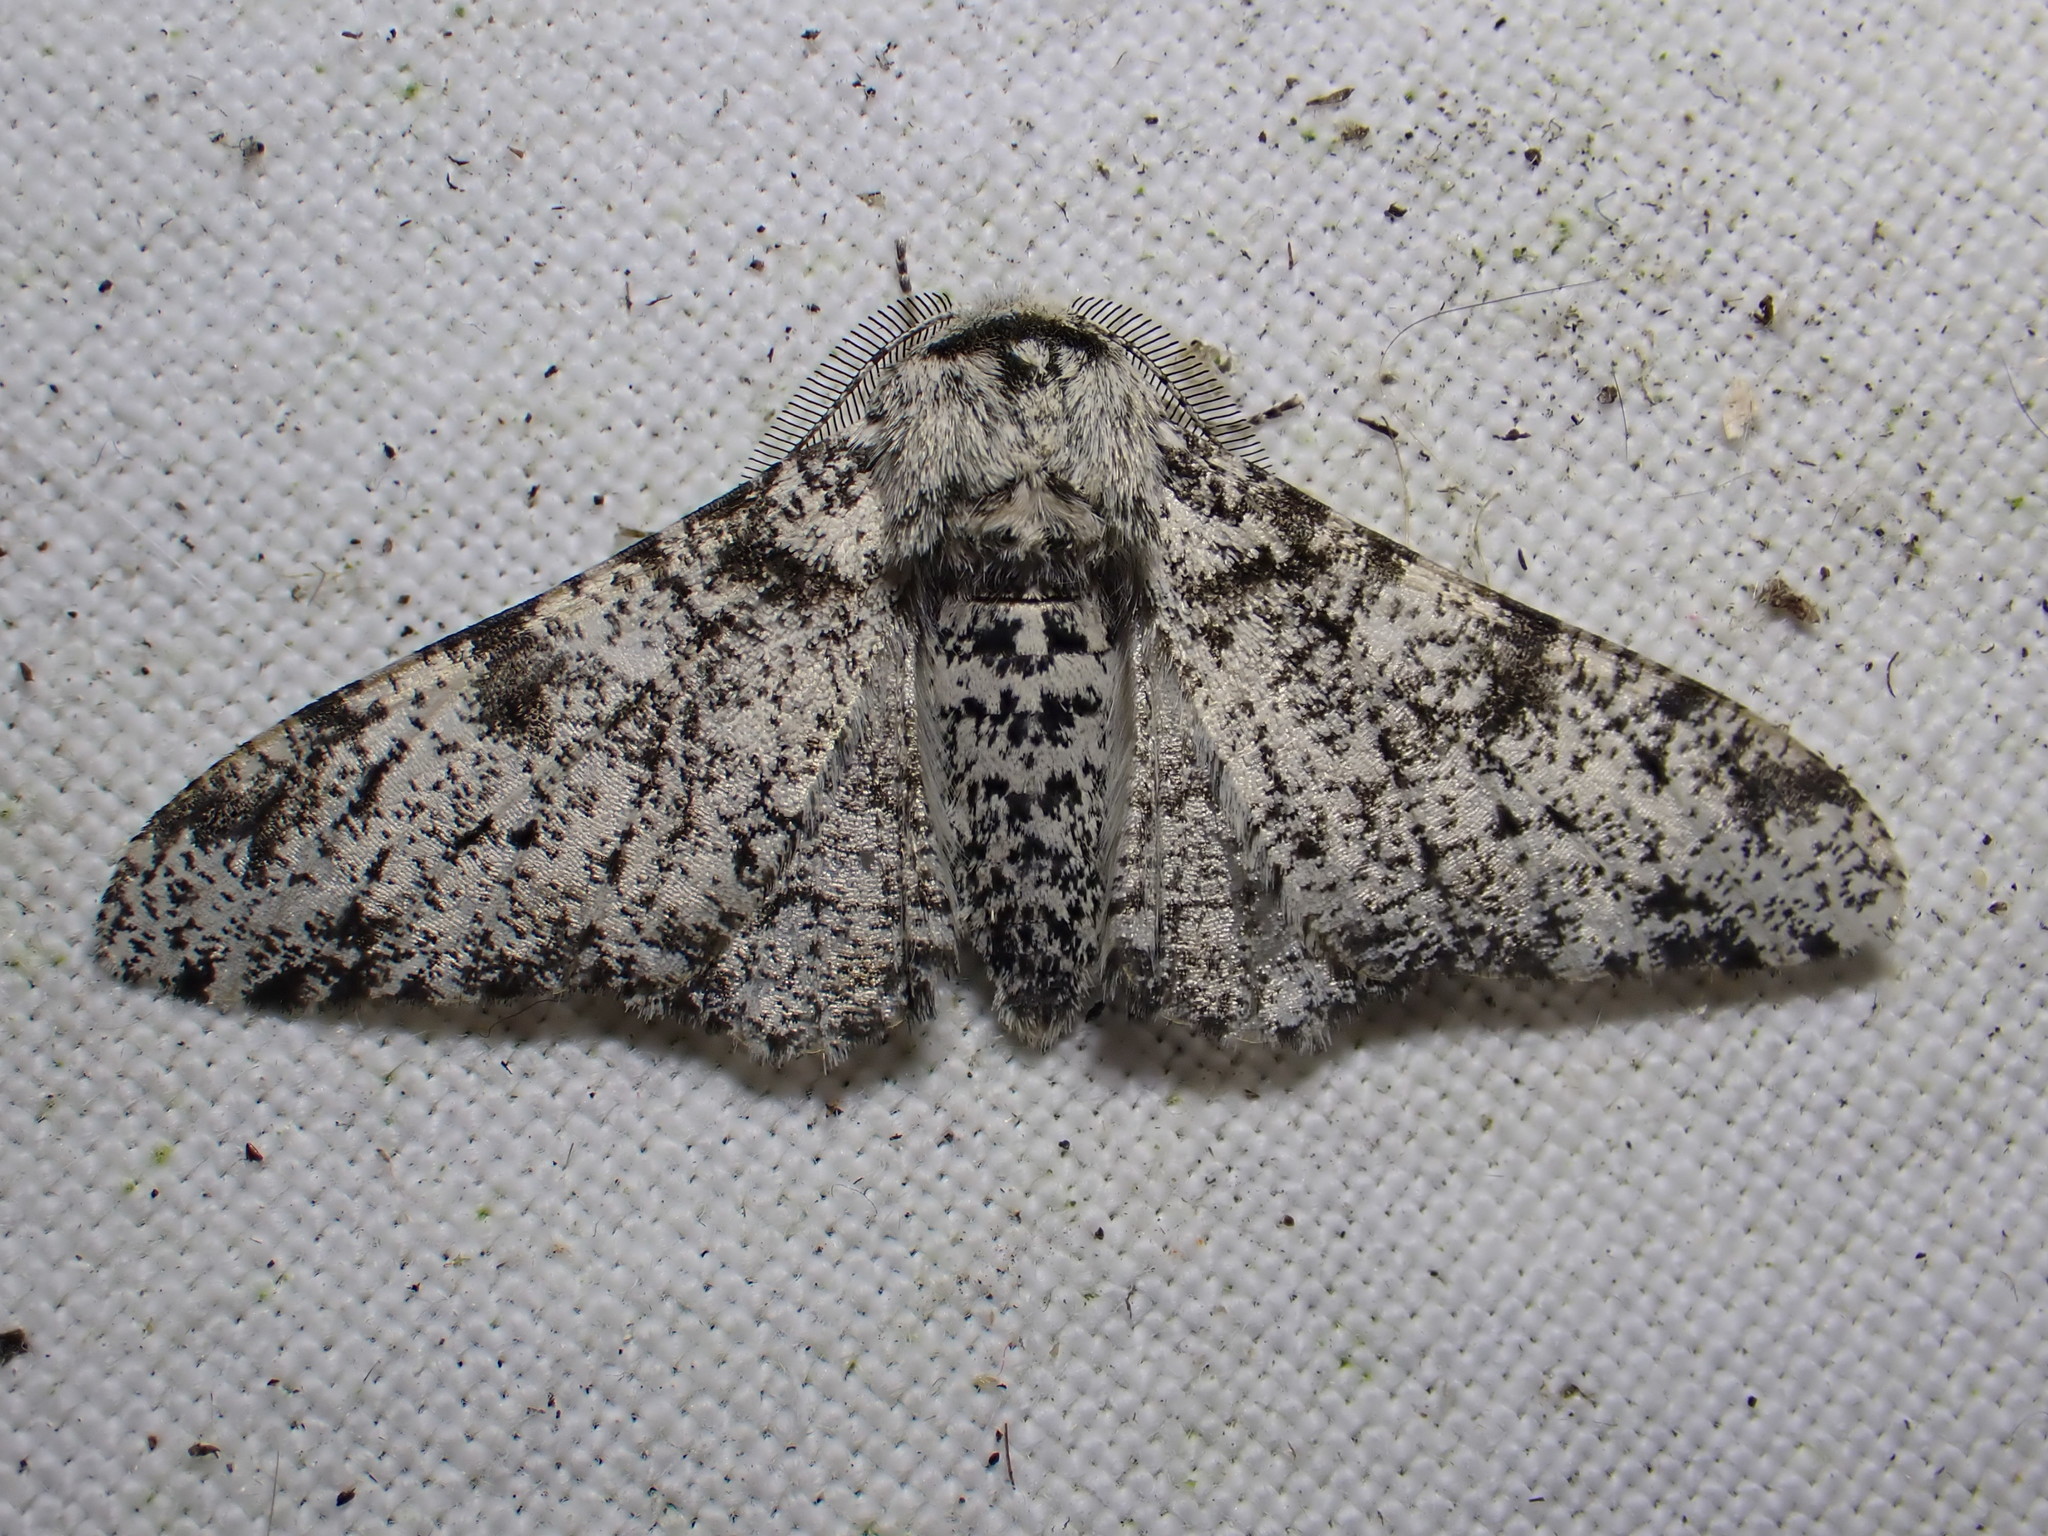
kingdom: Animalia
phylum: Arthropoda
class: Insecta
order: Lepidoptera
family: Geometridae
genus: Biston
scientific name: Biston betularia
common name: Peppered moth
